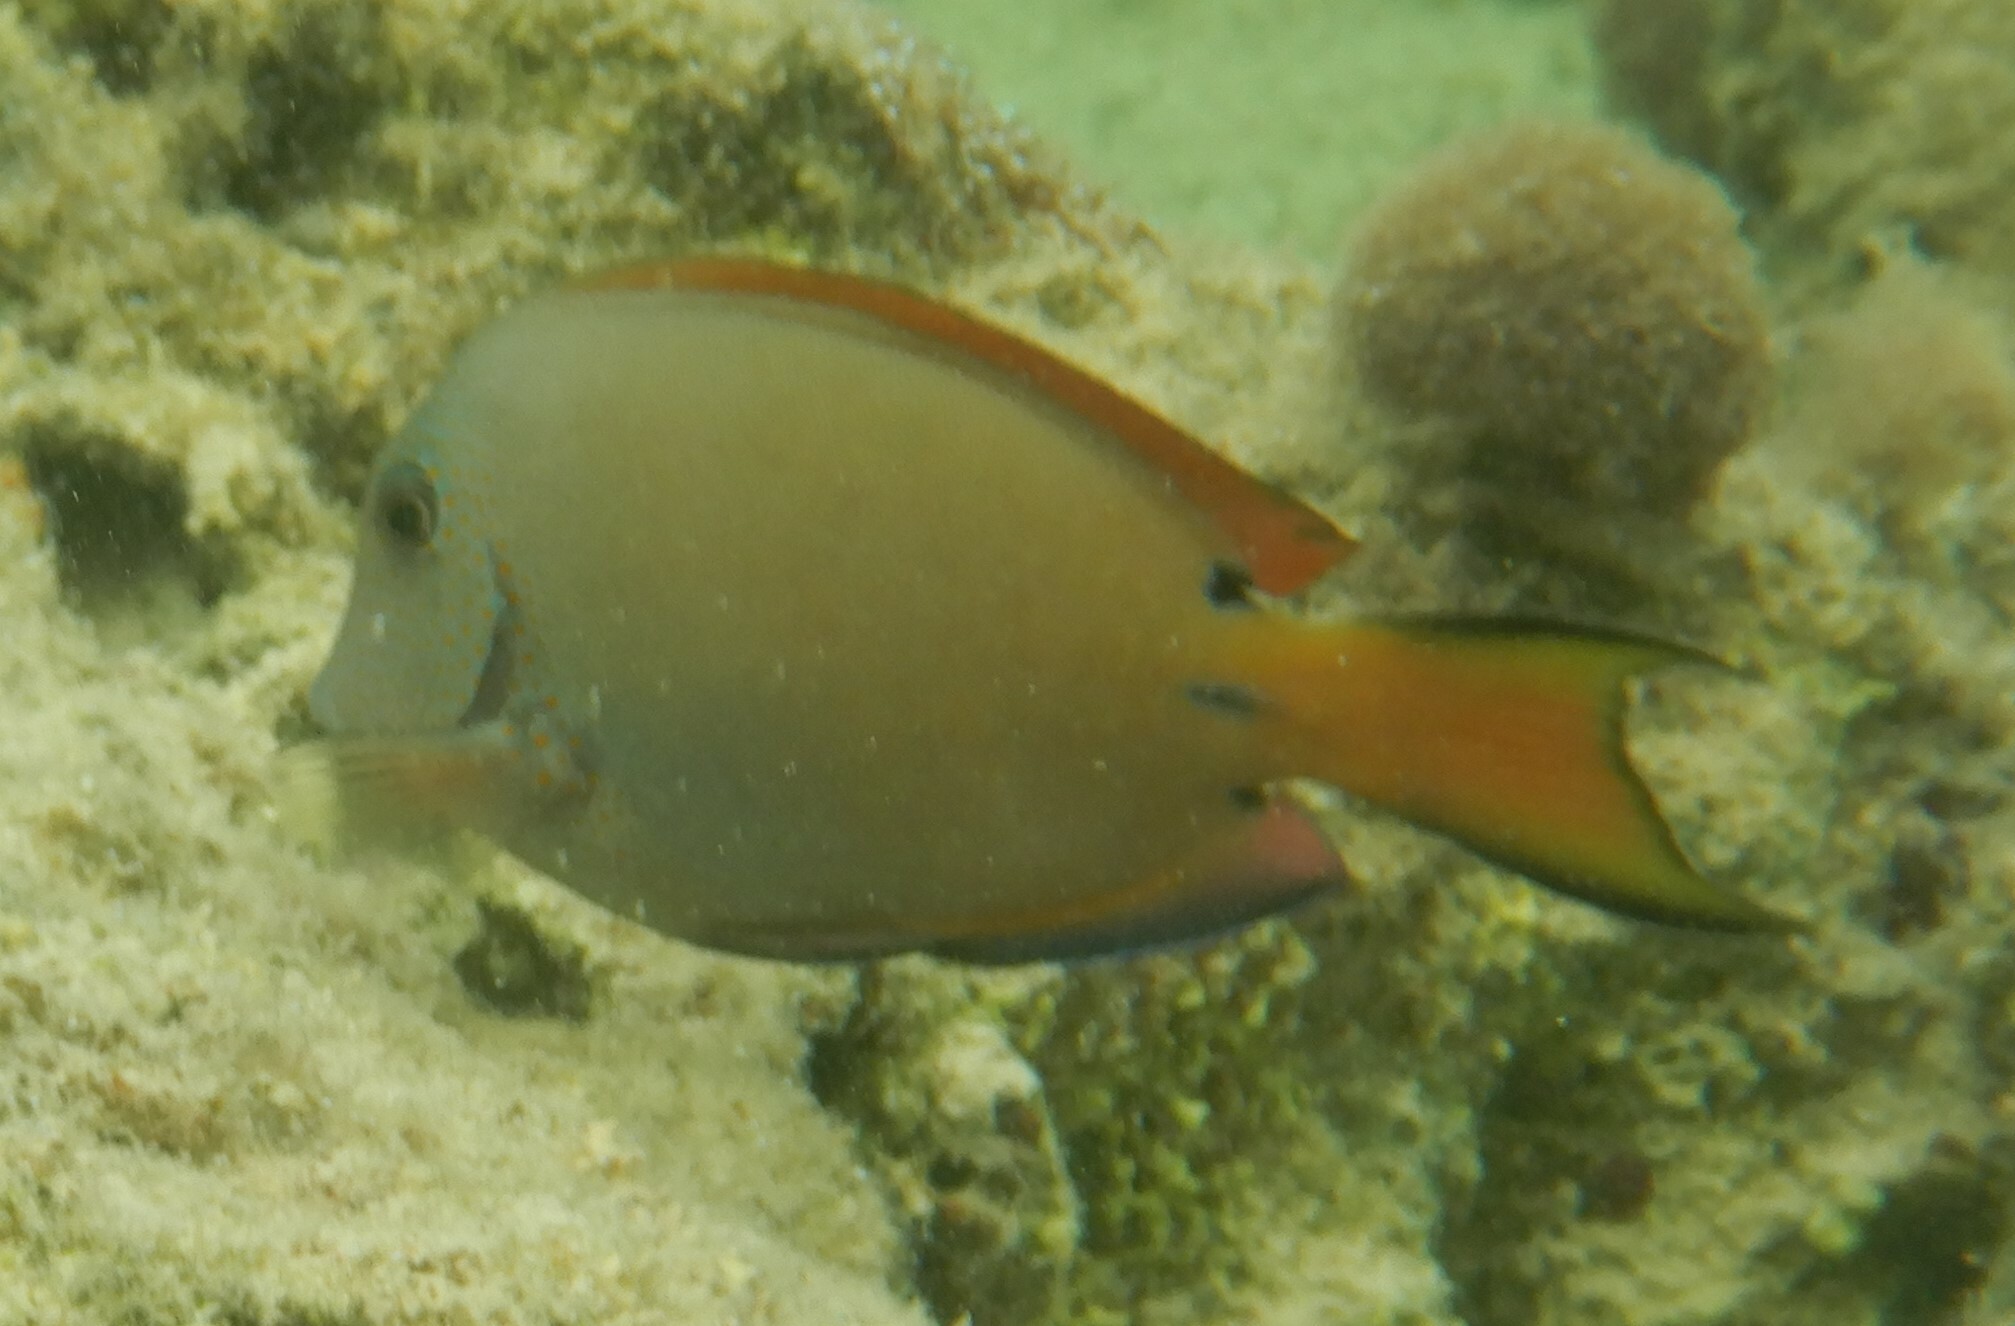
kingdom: Animalia
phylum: Chordata
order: Perciformes
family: Acanthuridae
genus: Acanthurus
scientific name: Acanthurus nigrofuscus
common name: Blackspot surgeonfish
